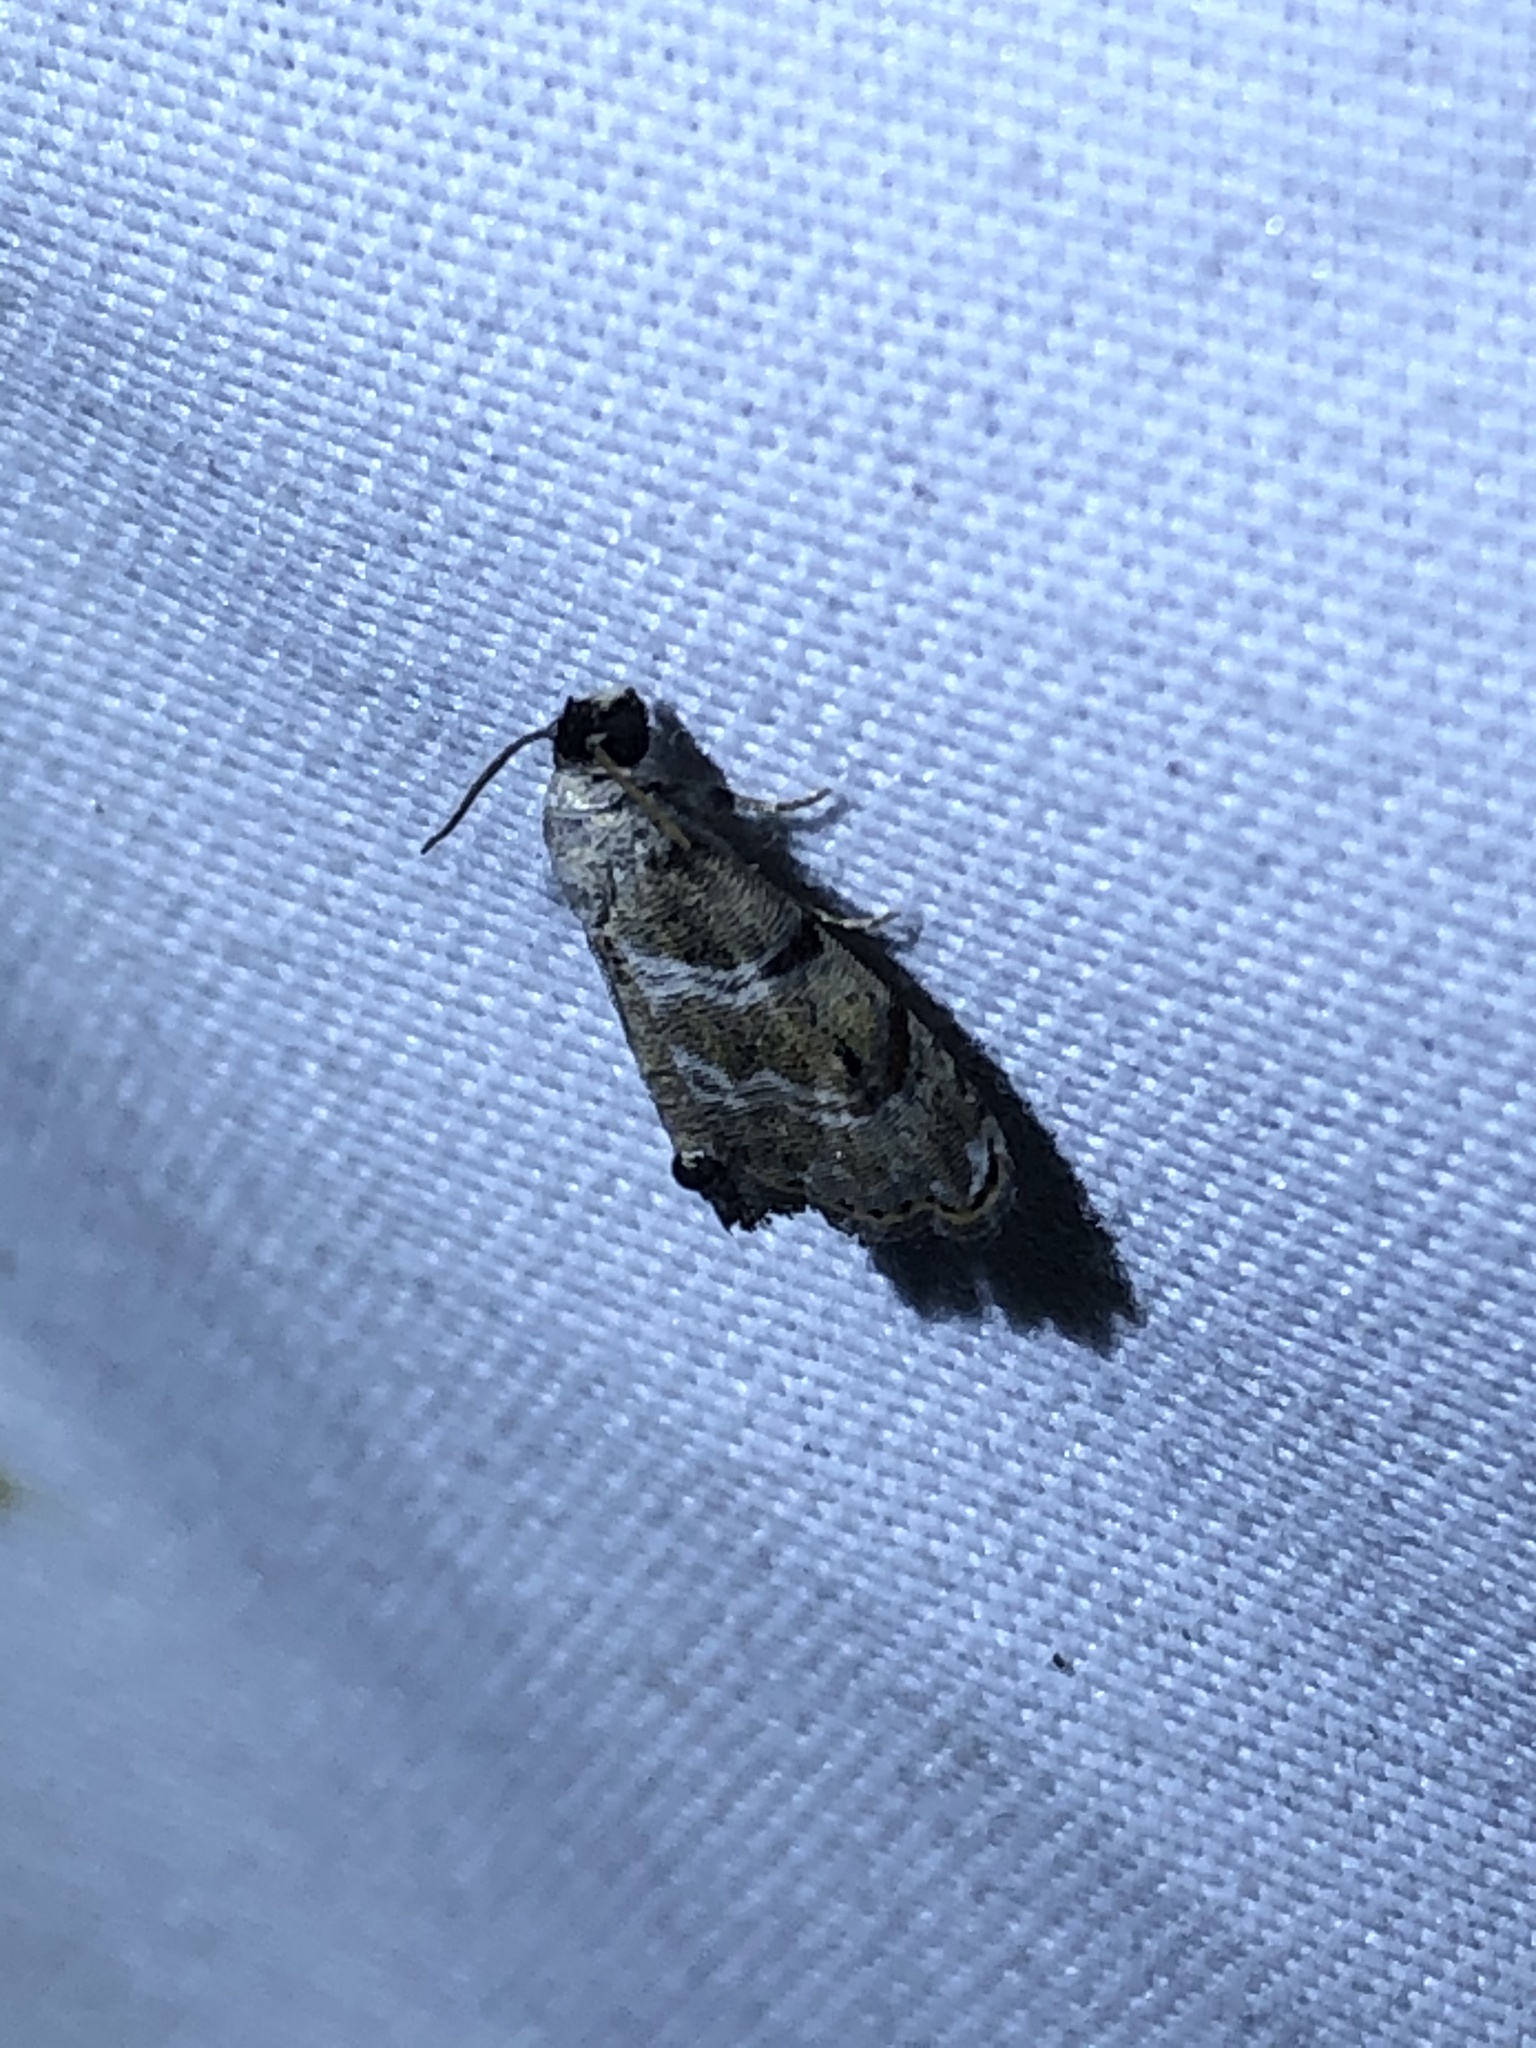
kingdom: Animalia
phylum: Arthropoda
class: Insecta
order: Lepidoptera
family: Noctuidae
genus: Abablemma
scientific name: Abablemma bilineata
